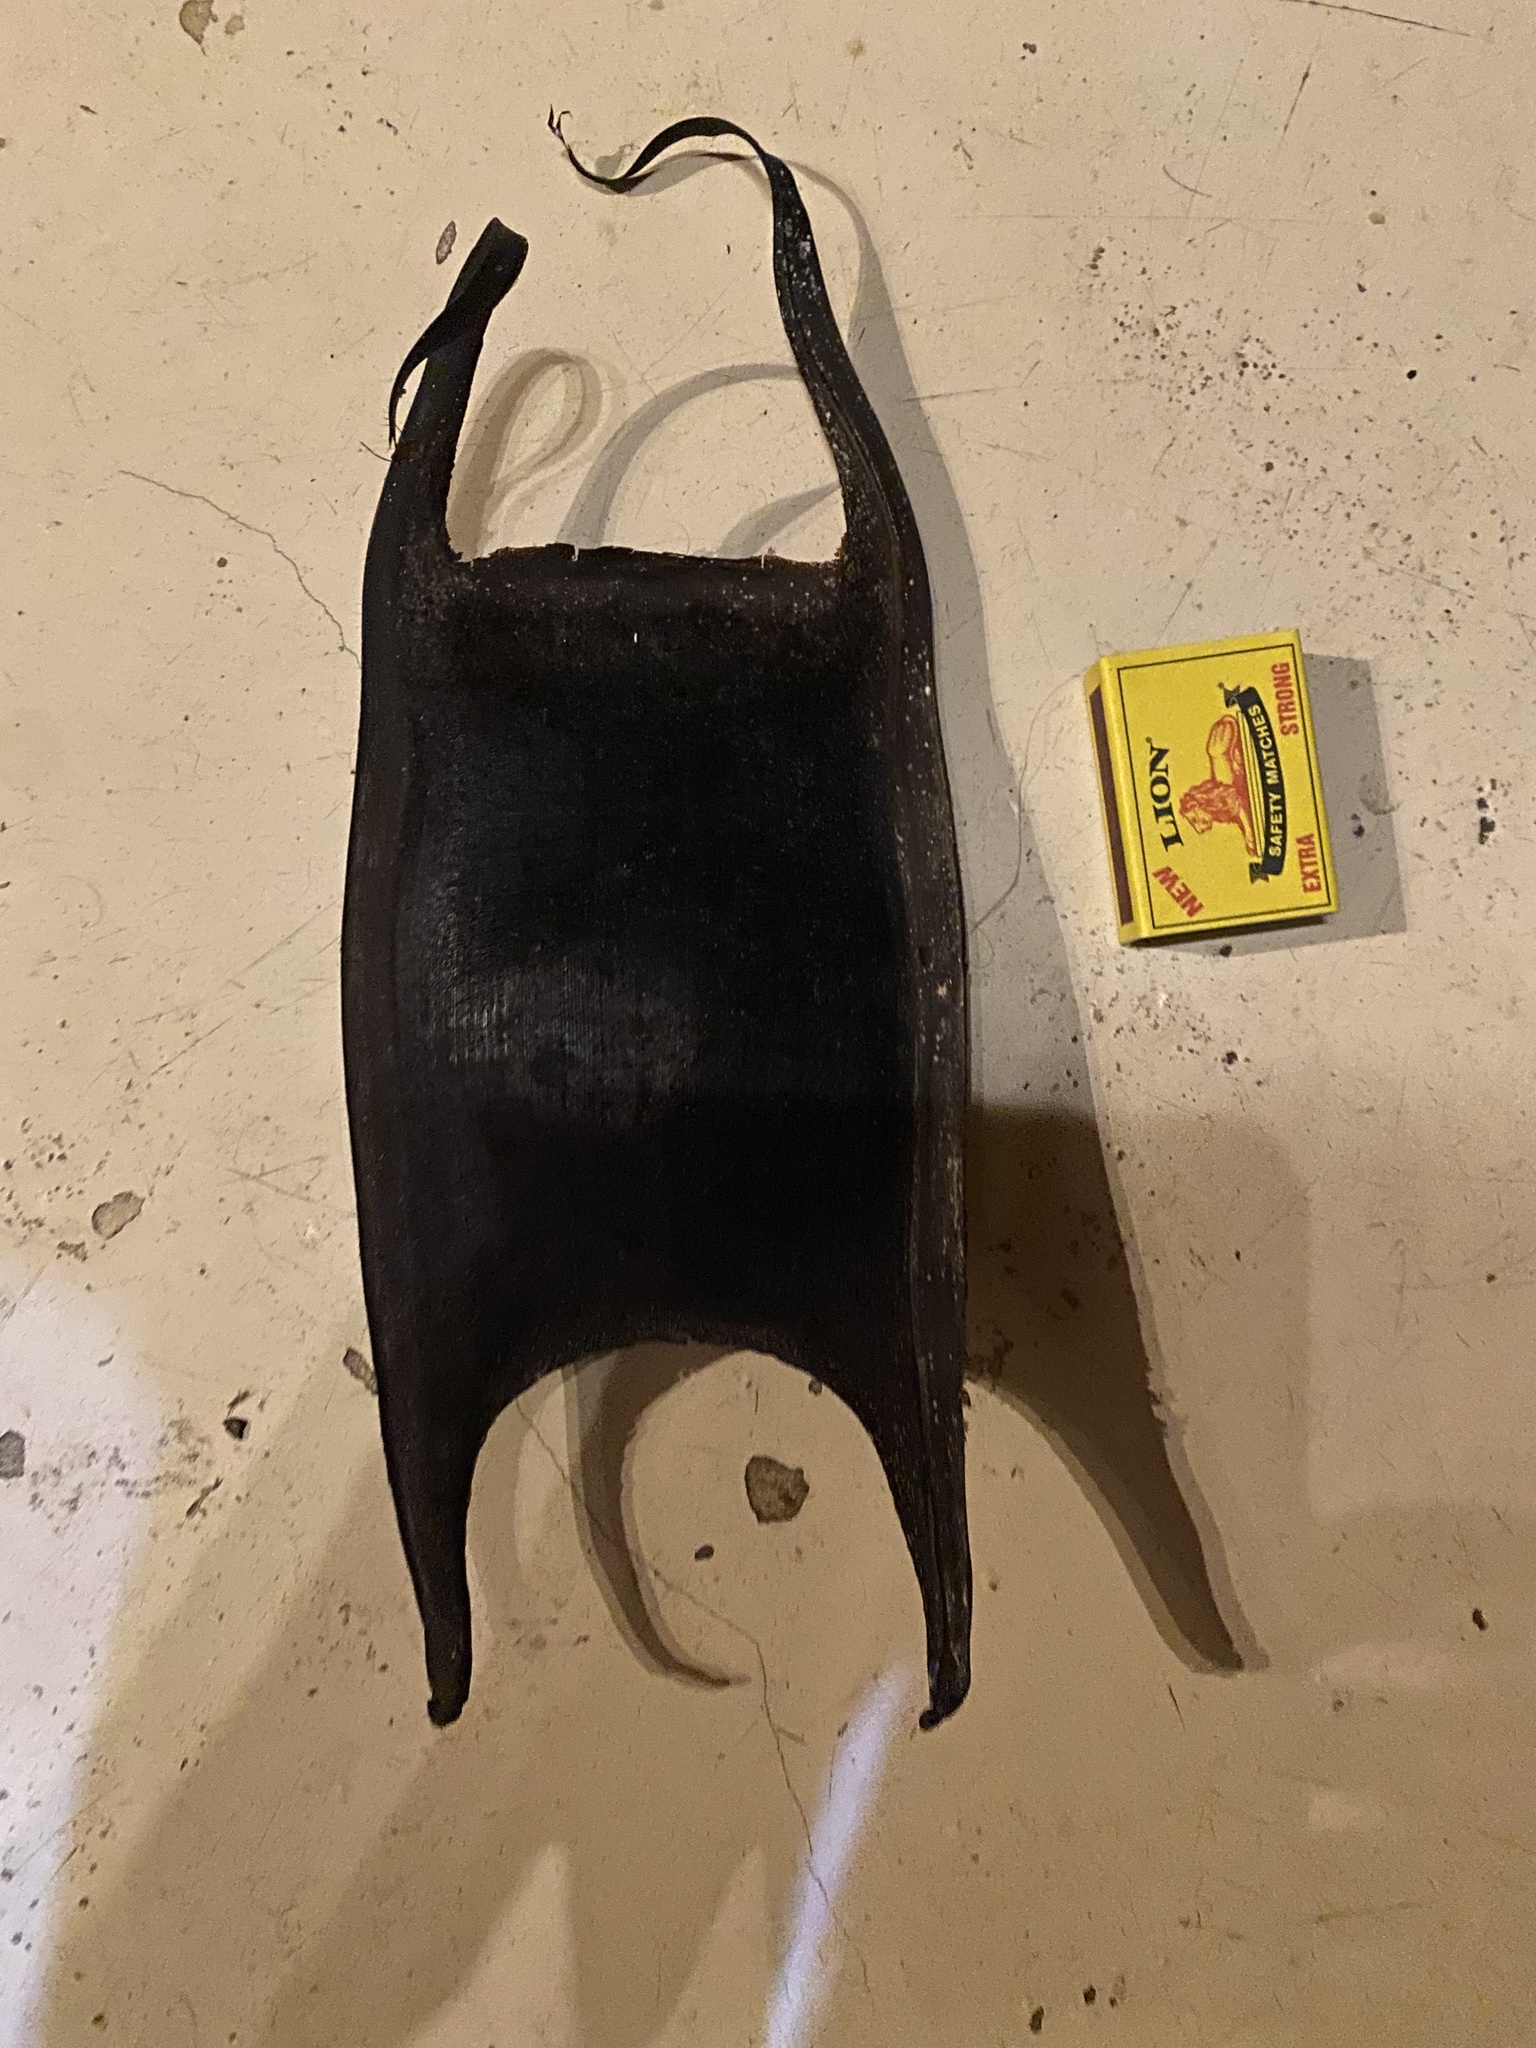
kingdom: Animalia
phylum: Chordata
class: Elasmobranchii
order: Rajiformes
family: Rajidae
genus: Rostroraja
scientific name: Rostroraja alba
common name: White skate
